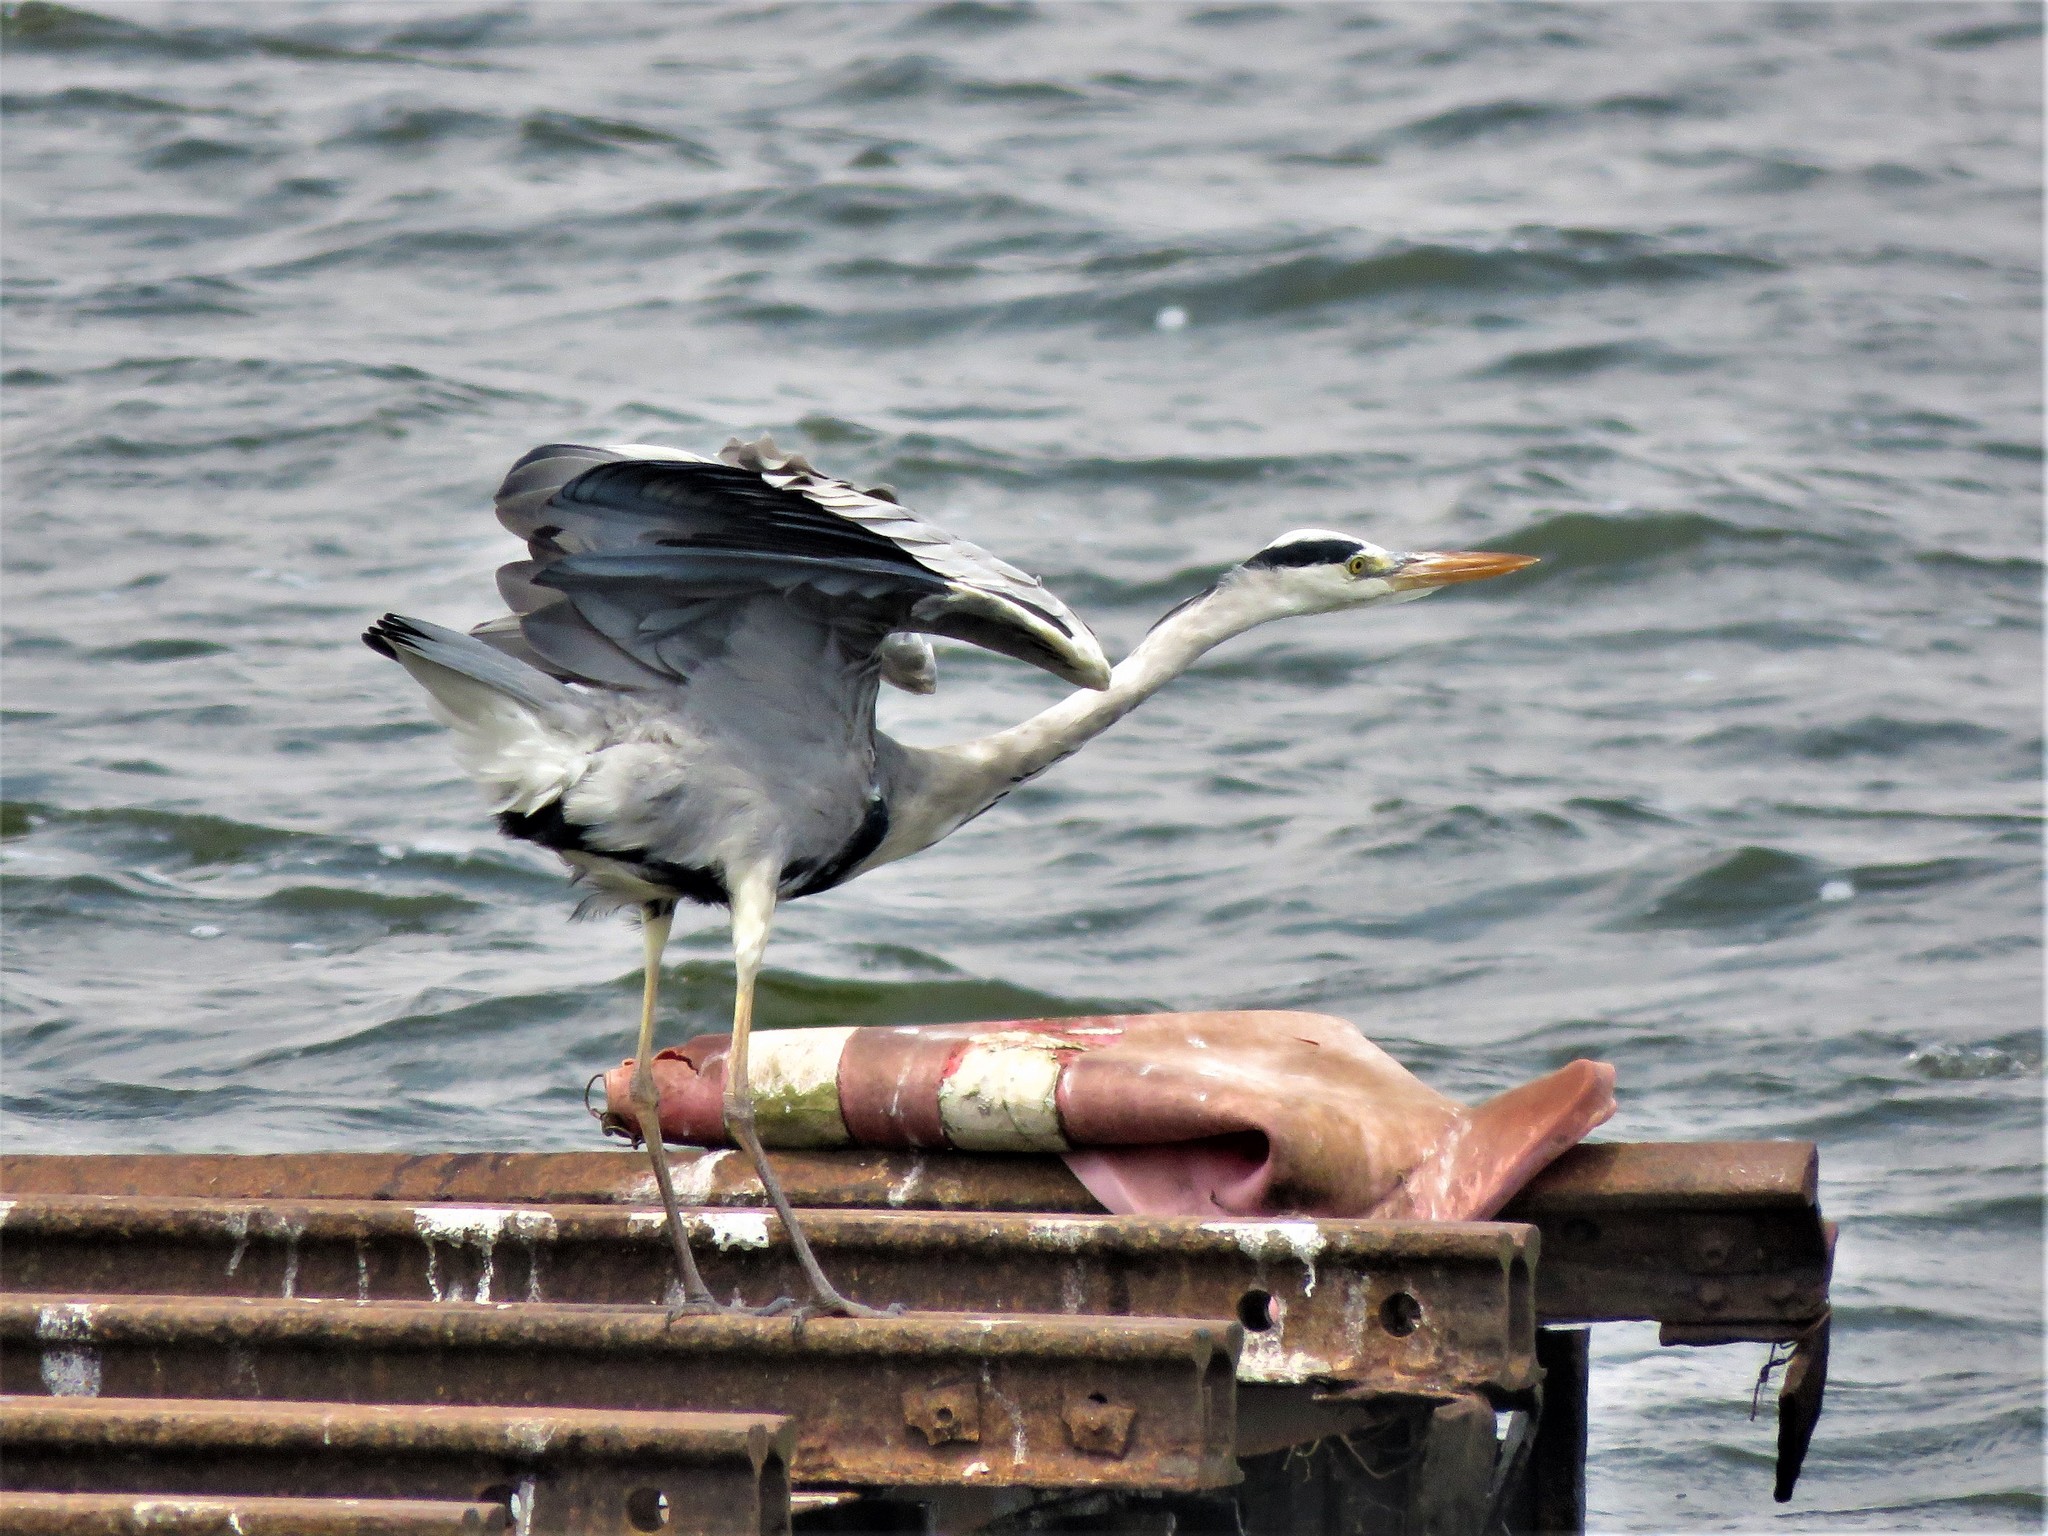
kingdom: Animalia
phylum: Chordata
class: Aves
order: Pelecaniformes
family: Ardeidae
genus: Ardea
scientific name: Ardea cinerea
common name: Grey heron
